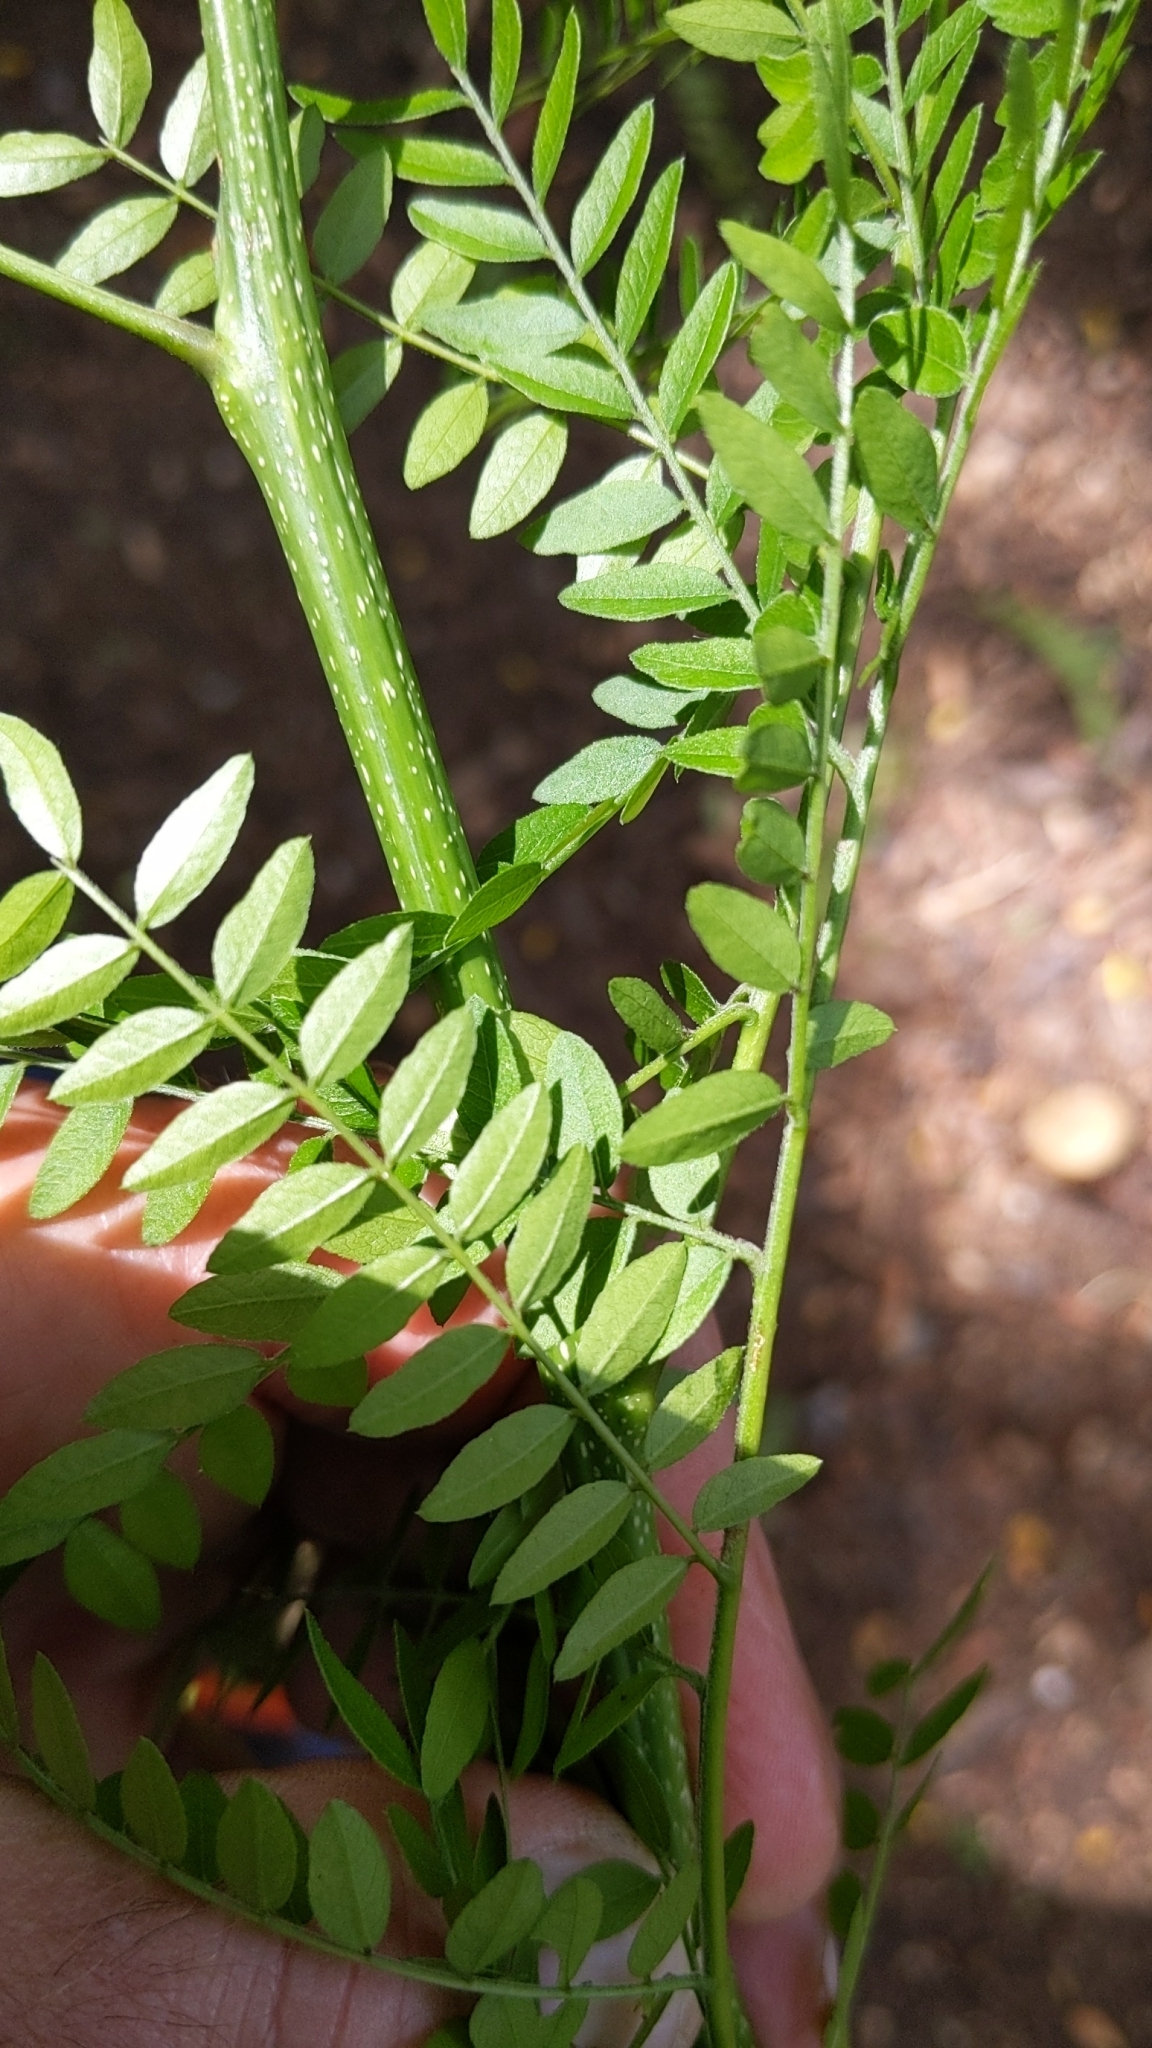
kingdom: Plantae
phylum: Tracheophyta
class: Magnoliopsida
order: Fabales
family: Fabaceae
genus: Gleditsia
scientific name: Gleditsia triacanthos
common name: Common honeylocust
